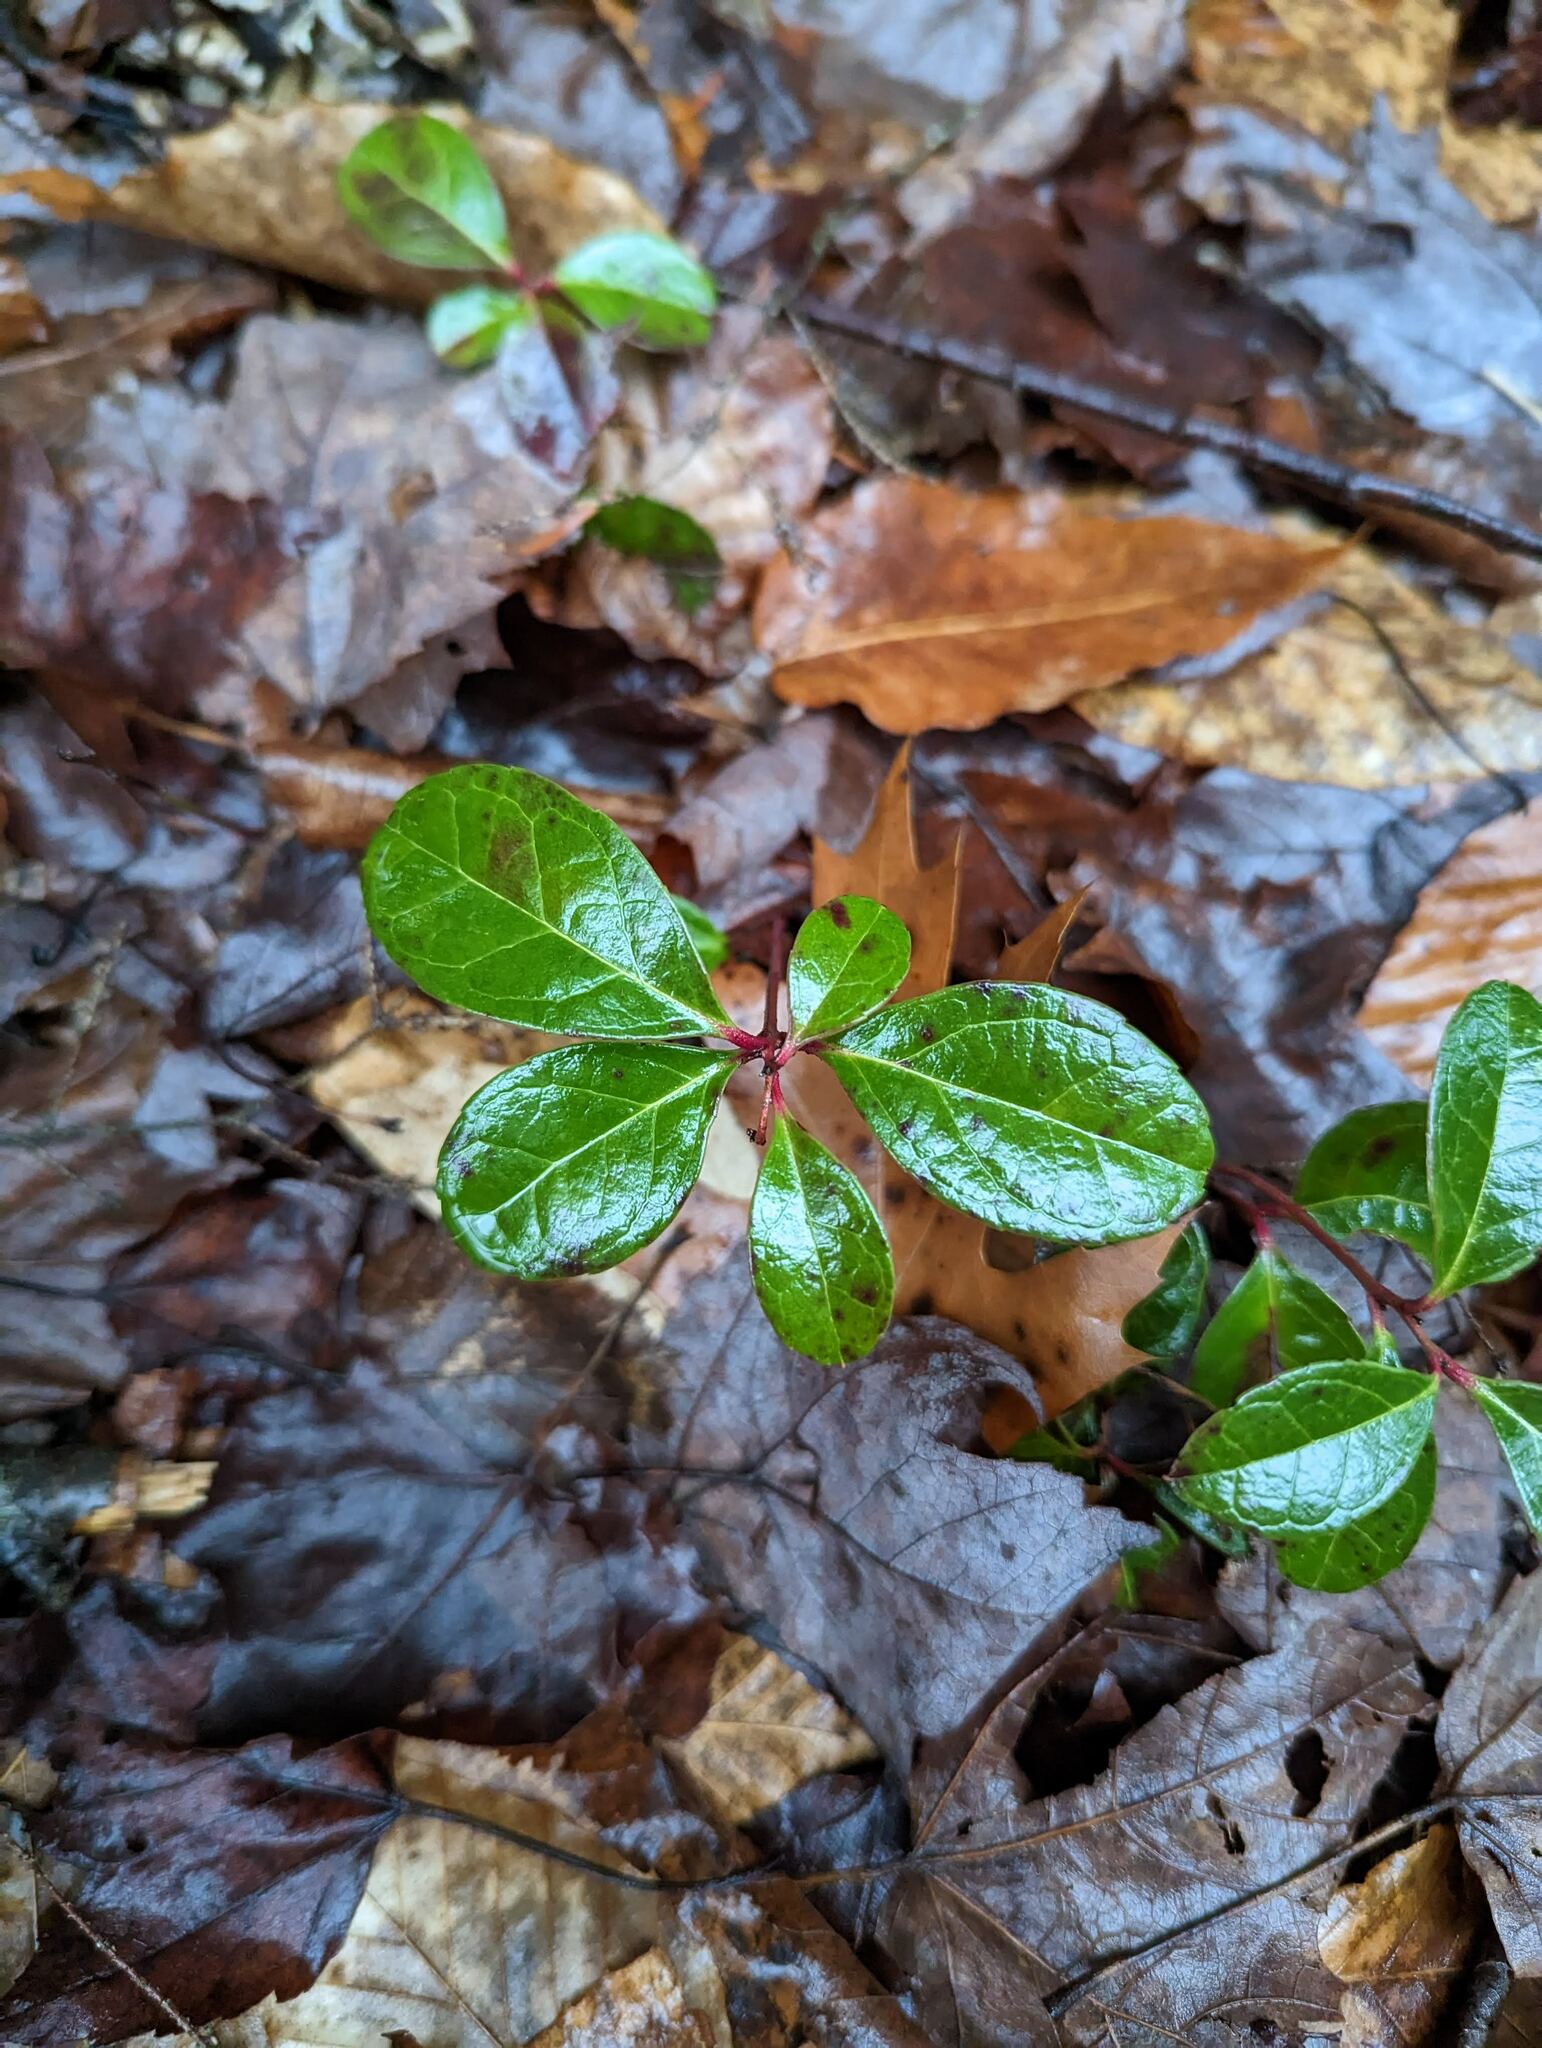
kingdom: Plantae
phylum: Tracheophyta
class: Magnoliopsida
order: Ericales
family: Ericaceae
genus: Gaultheria
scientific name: Gaultheria procumbens
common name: Checkerberry
